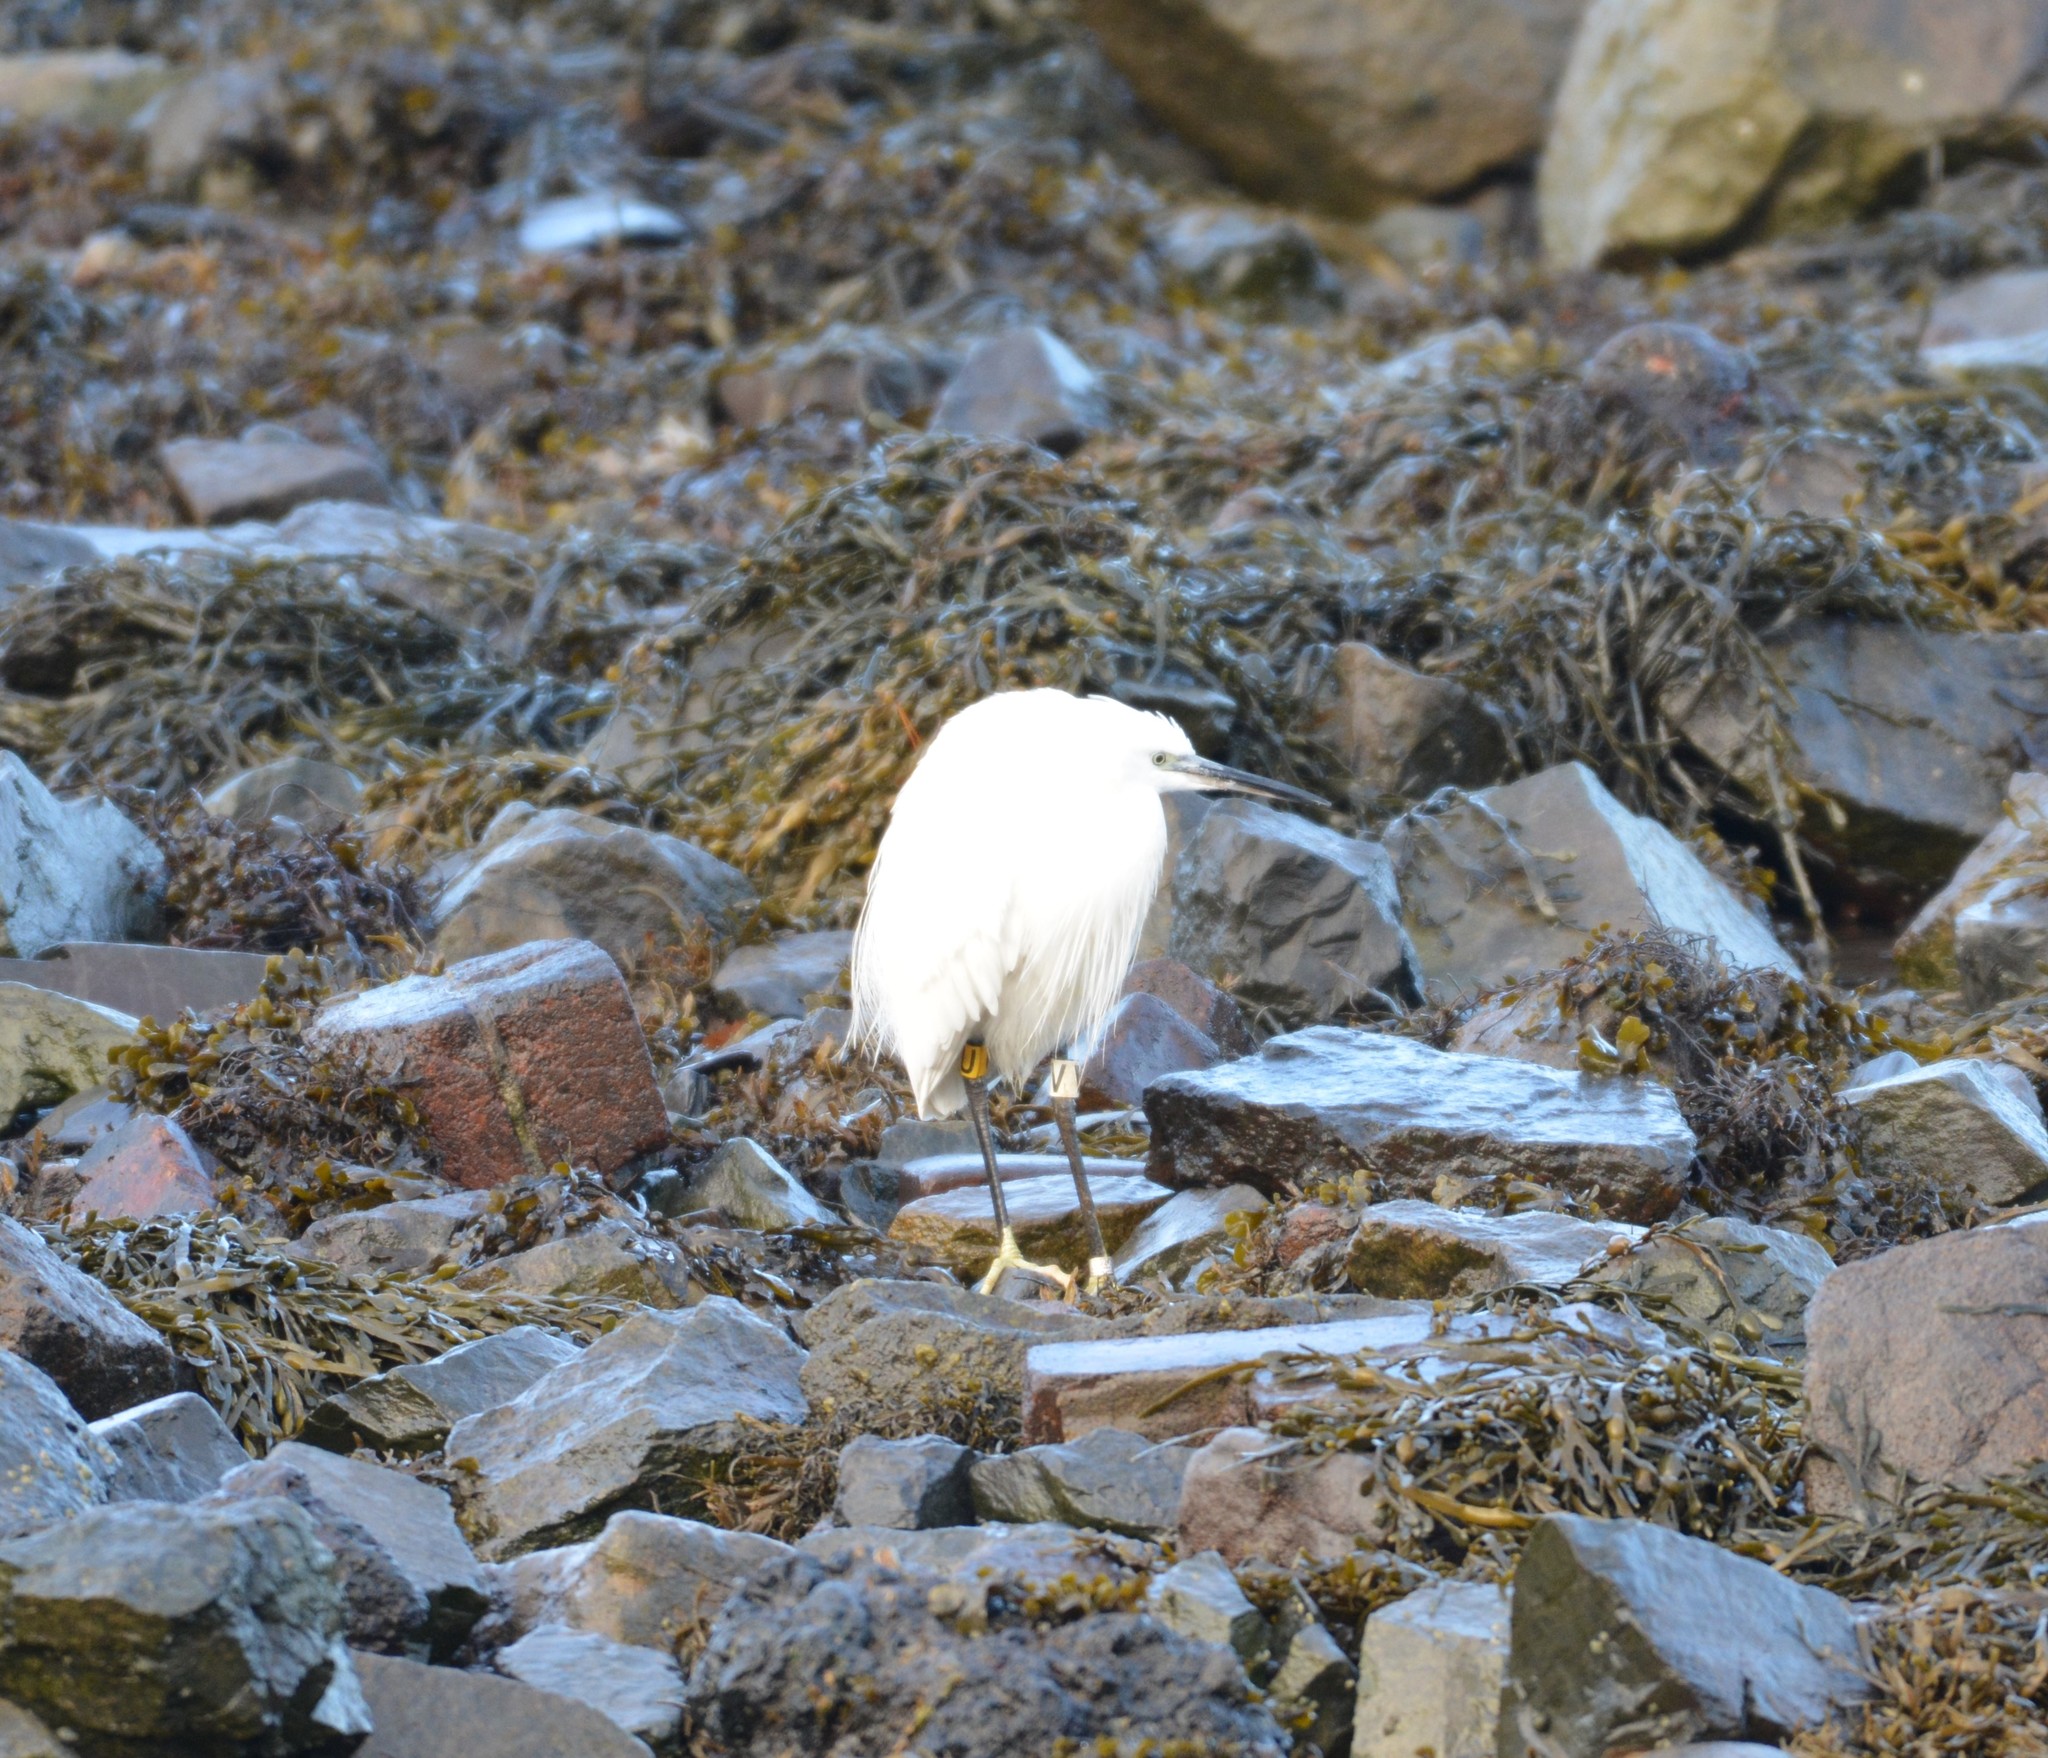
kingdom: Animalia
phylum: Chordata
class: Aves
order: Pelecaniformes
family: Ardeidae
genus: Egretta
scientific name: Egretta garzetta
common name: Little egret
